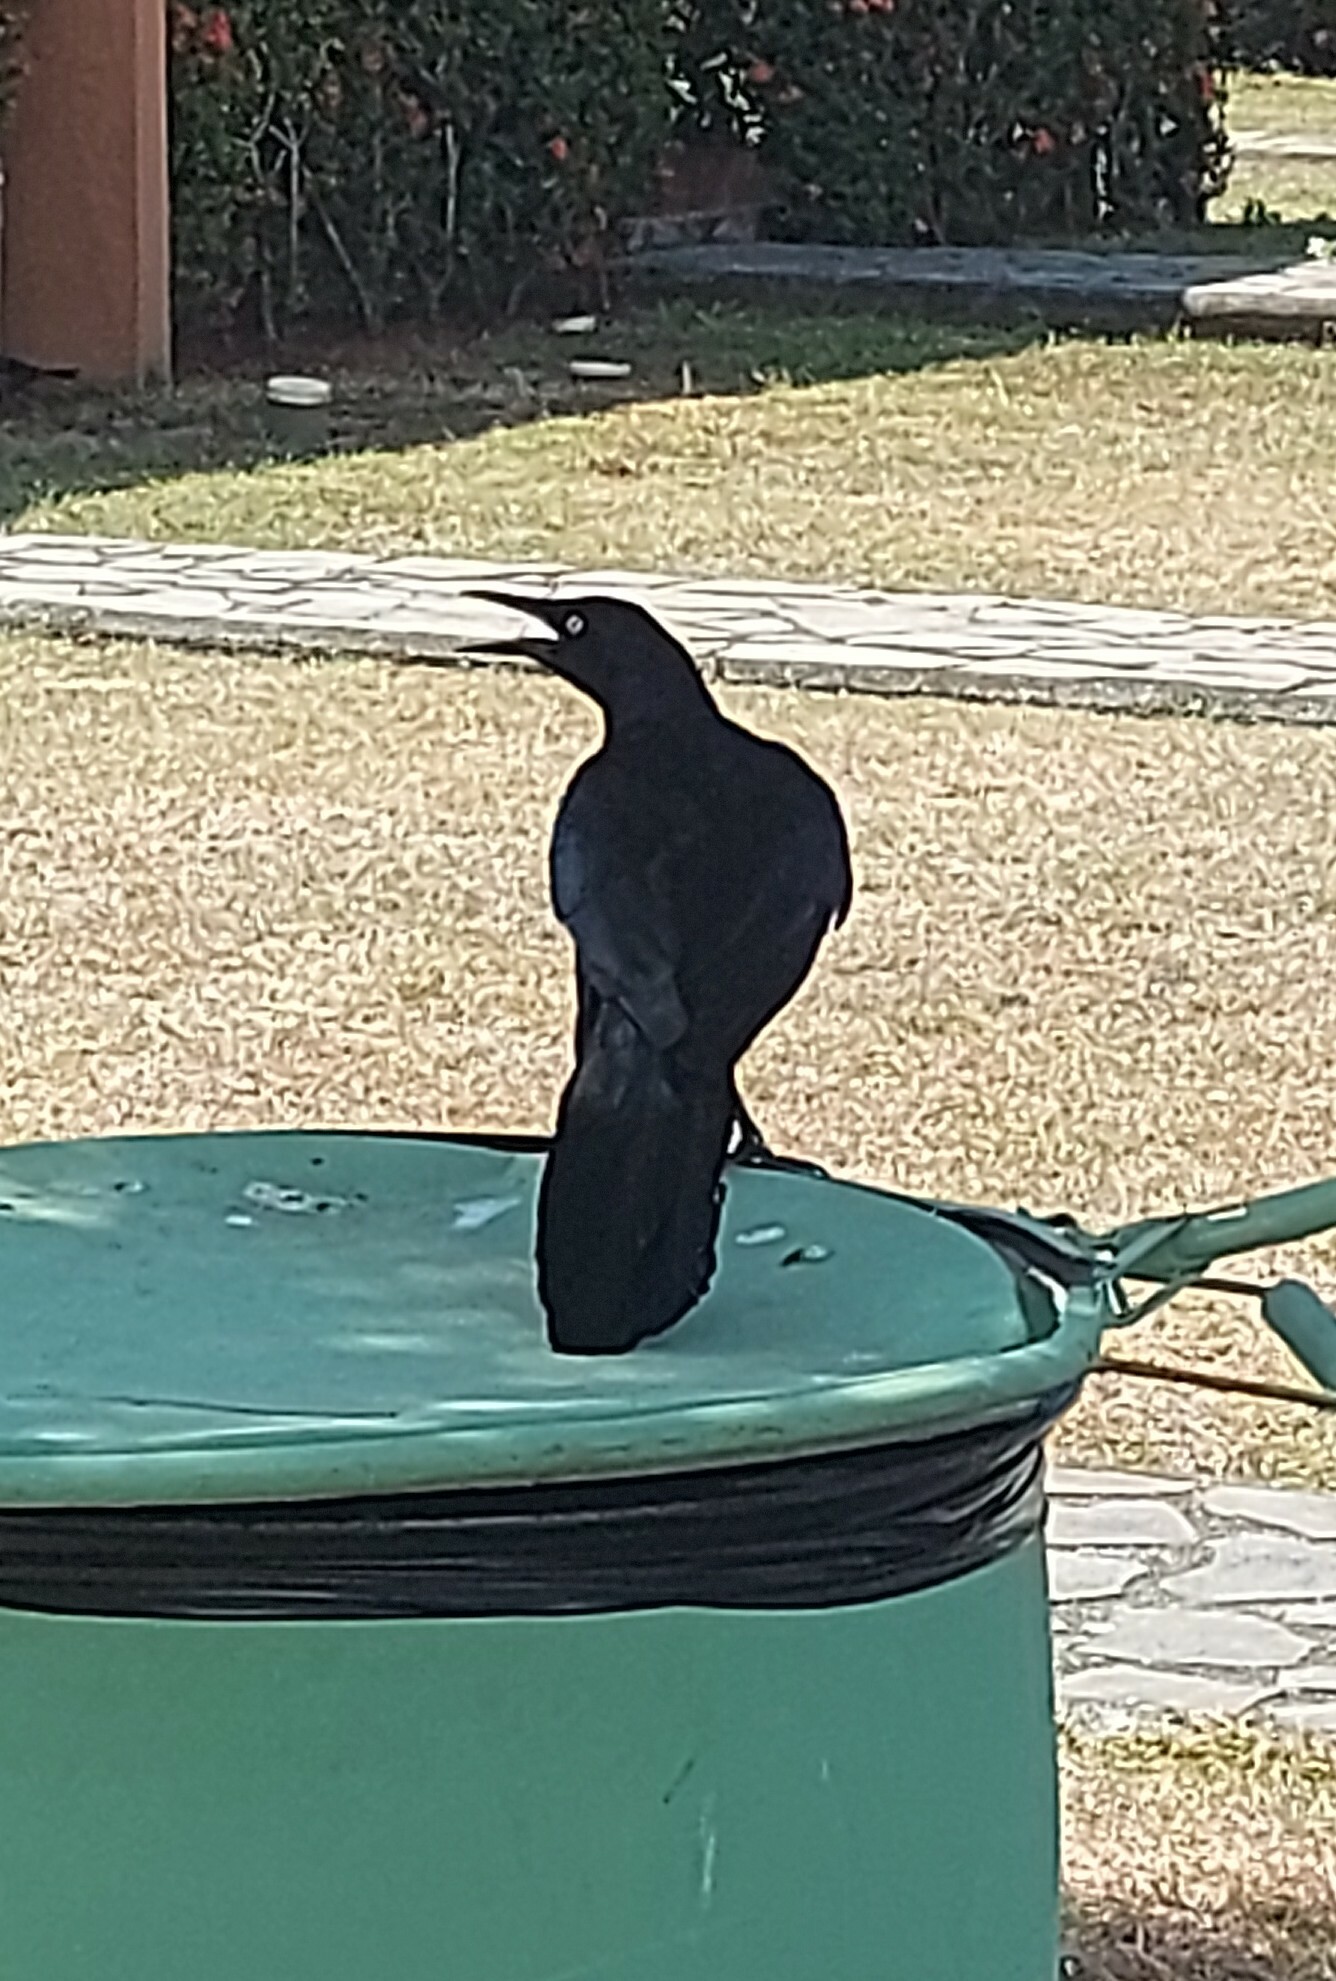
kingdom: Animalia
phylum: Chordata
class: Aves
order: Passeriformes
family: Icteridae
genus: Quiscalus
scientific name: Quiscalus mexicanus
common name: Great-tailed grackle
